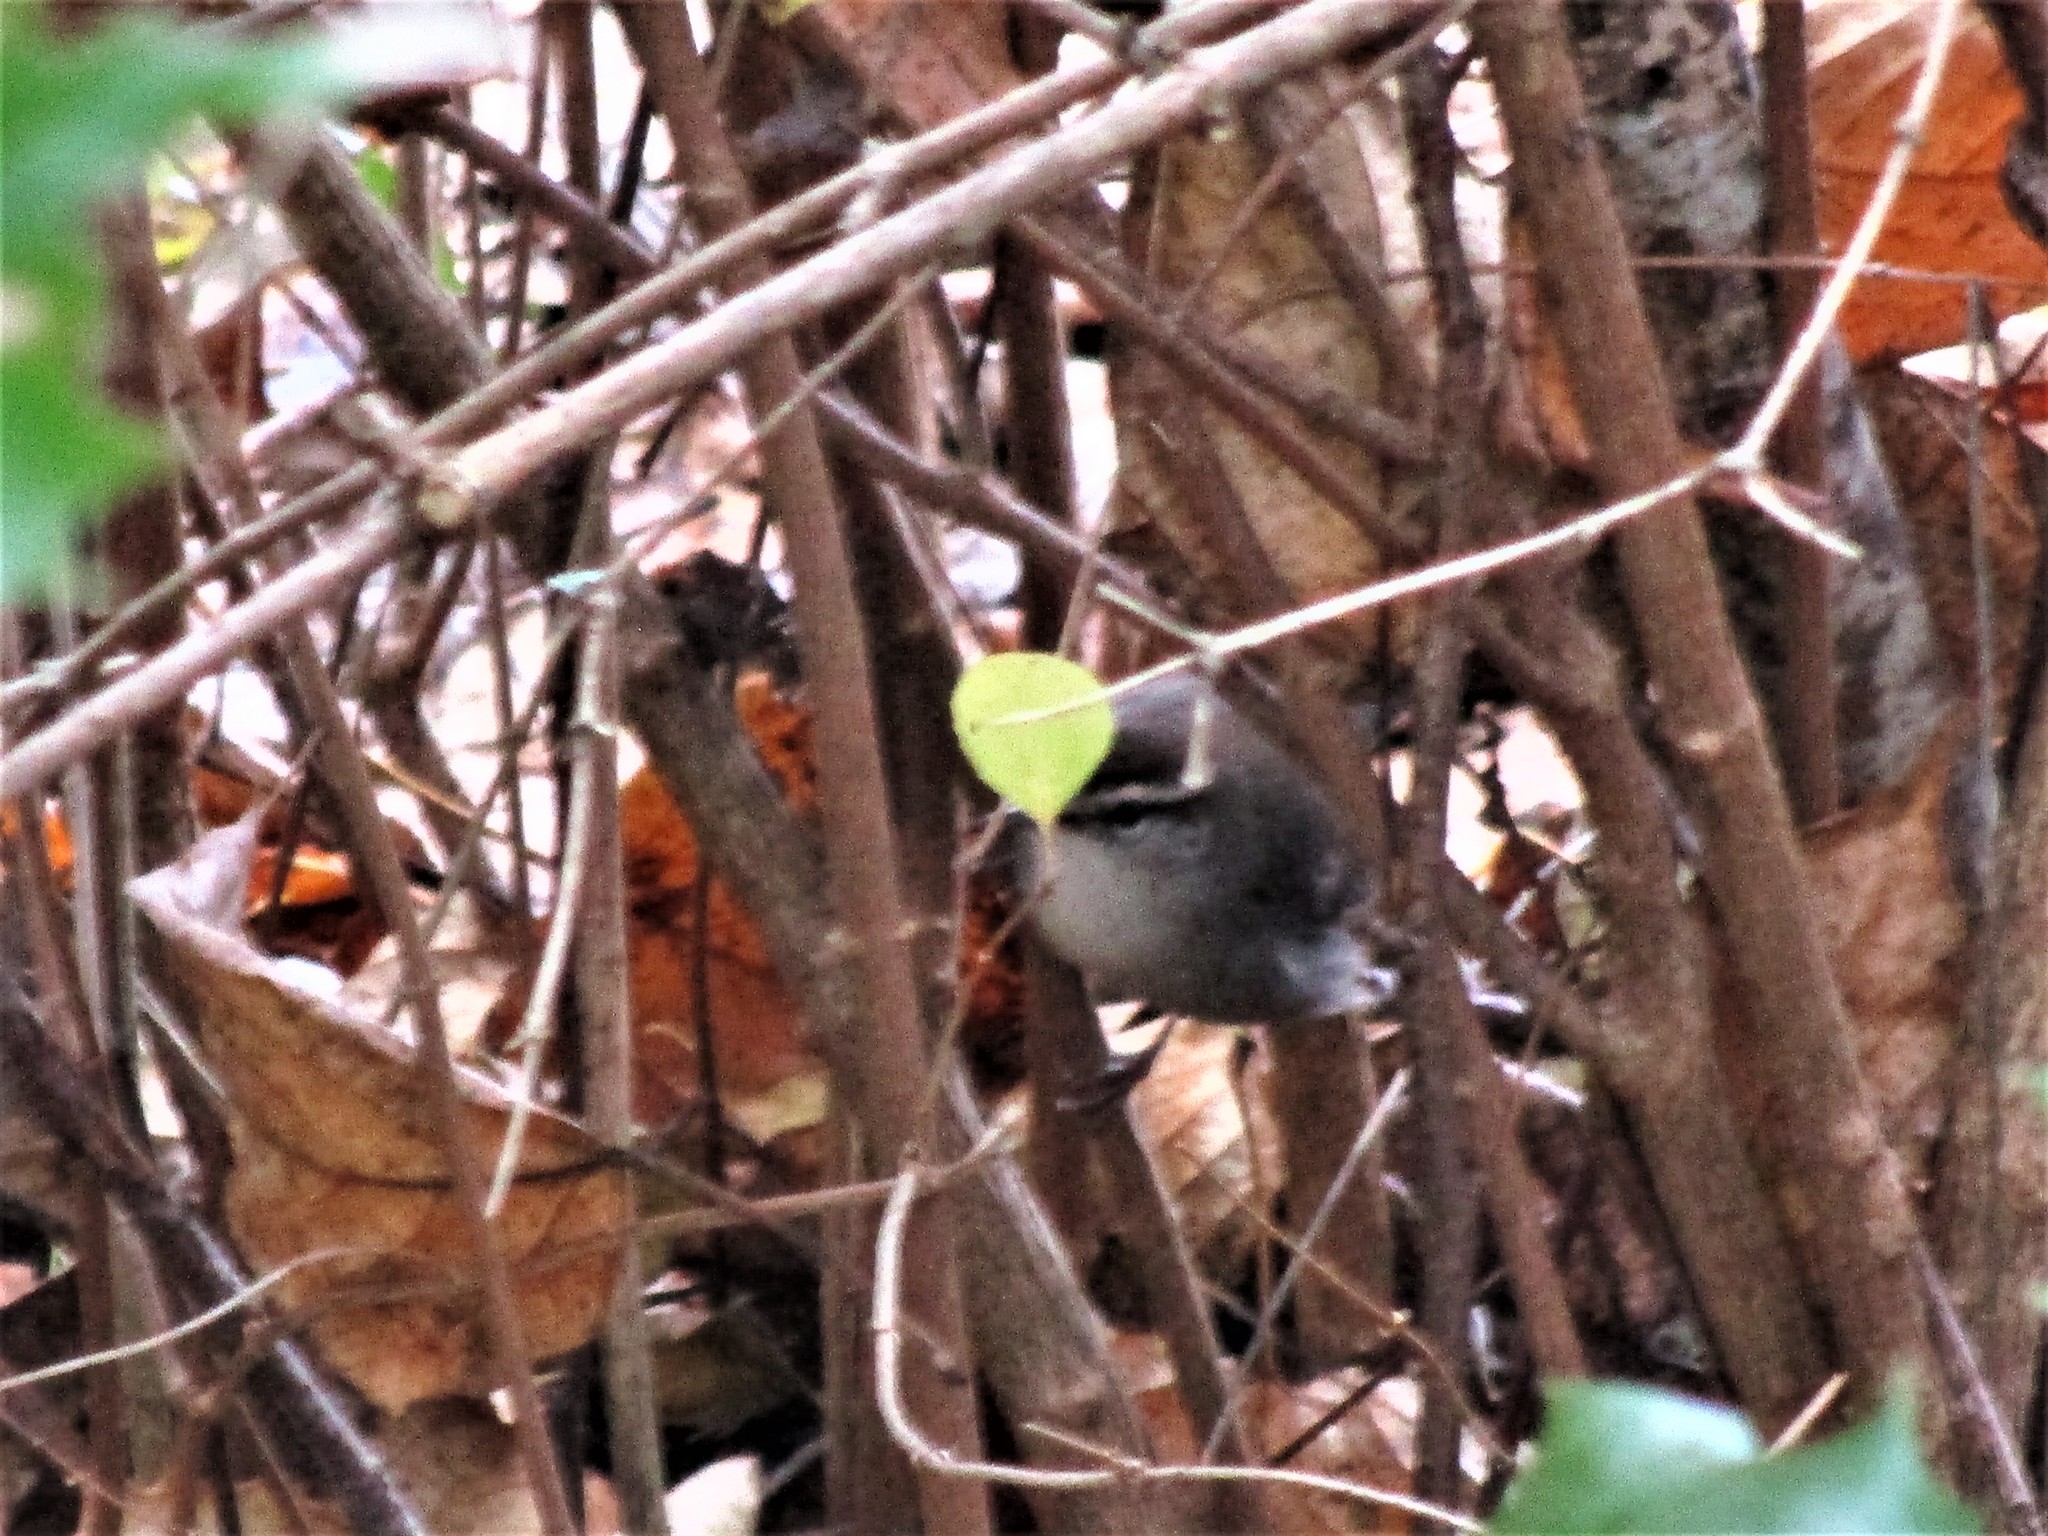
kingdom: Animalia
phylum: Chordata
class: Aves
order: Passeriformes
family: Troglodytidae
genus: Thryomanes
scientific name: Thryomanes bewickii
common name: Bewick's wren
